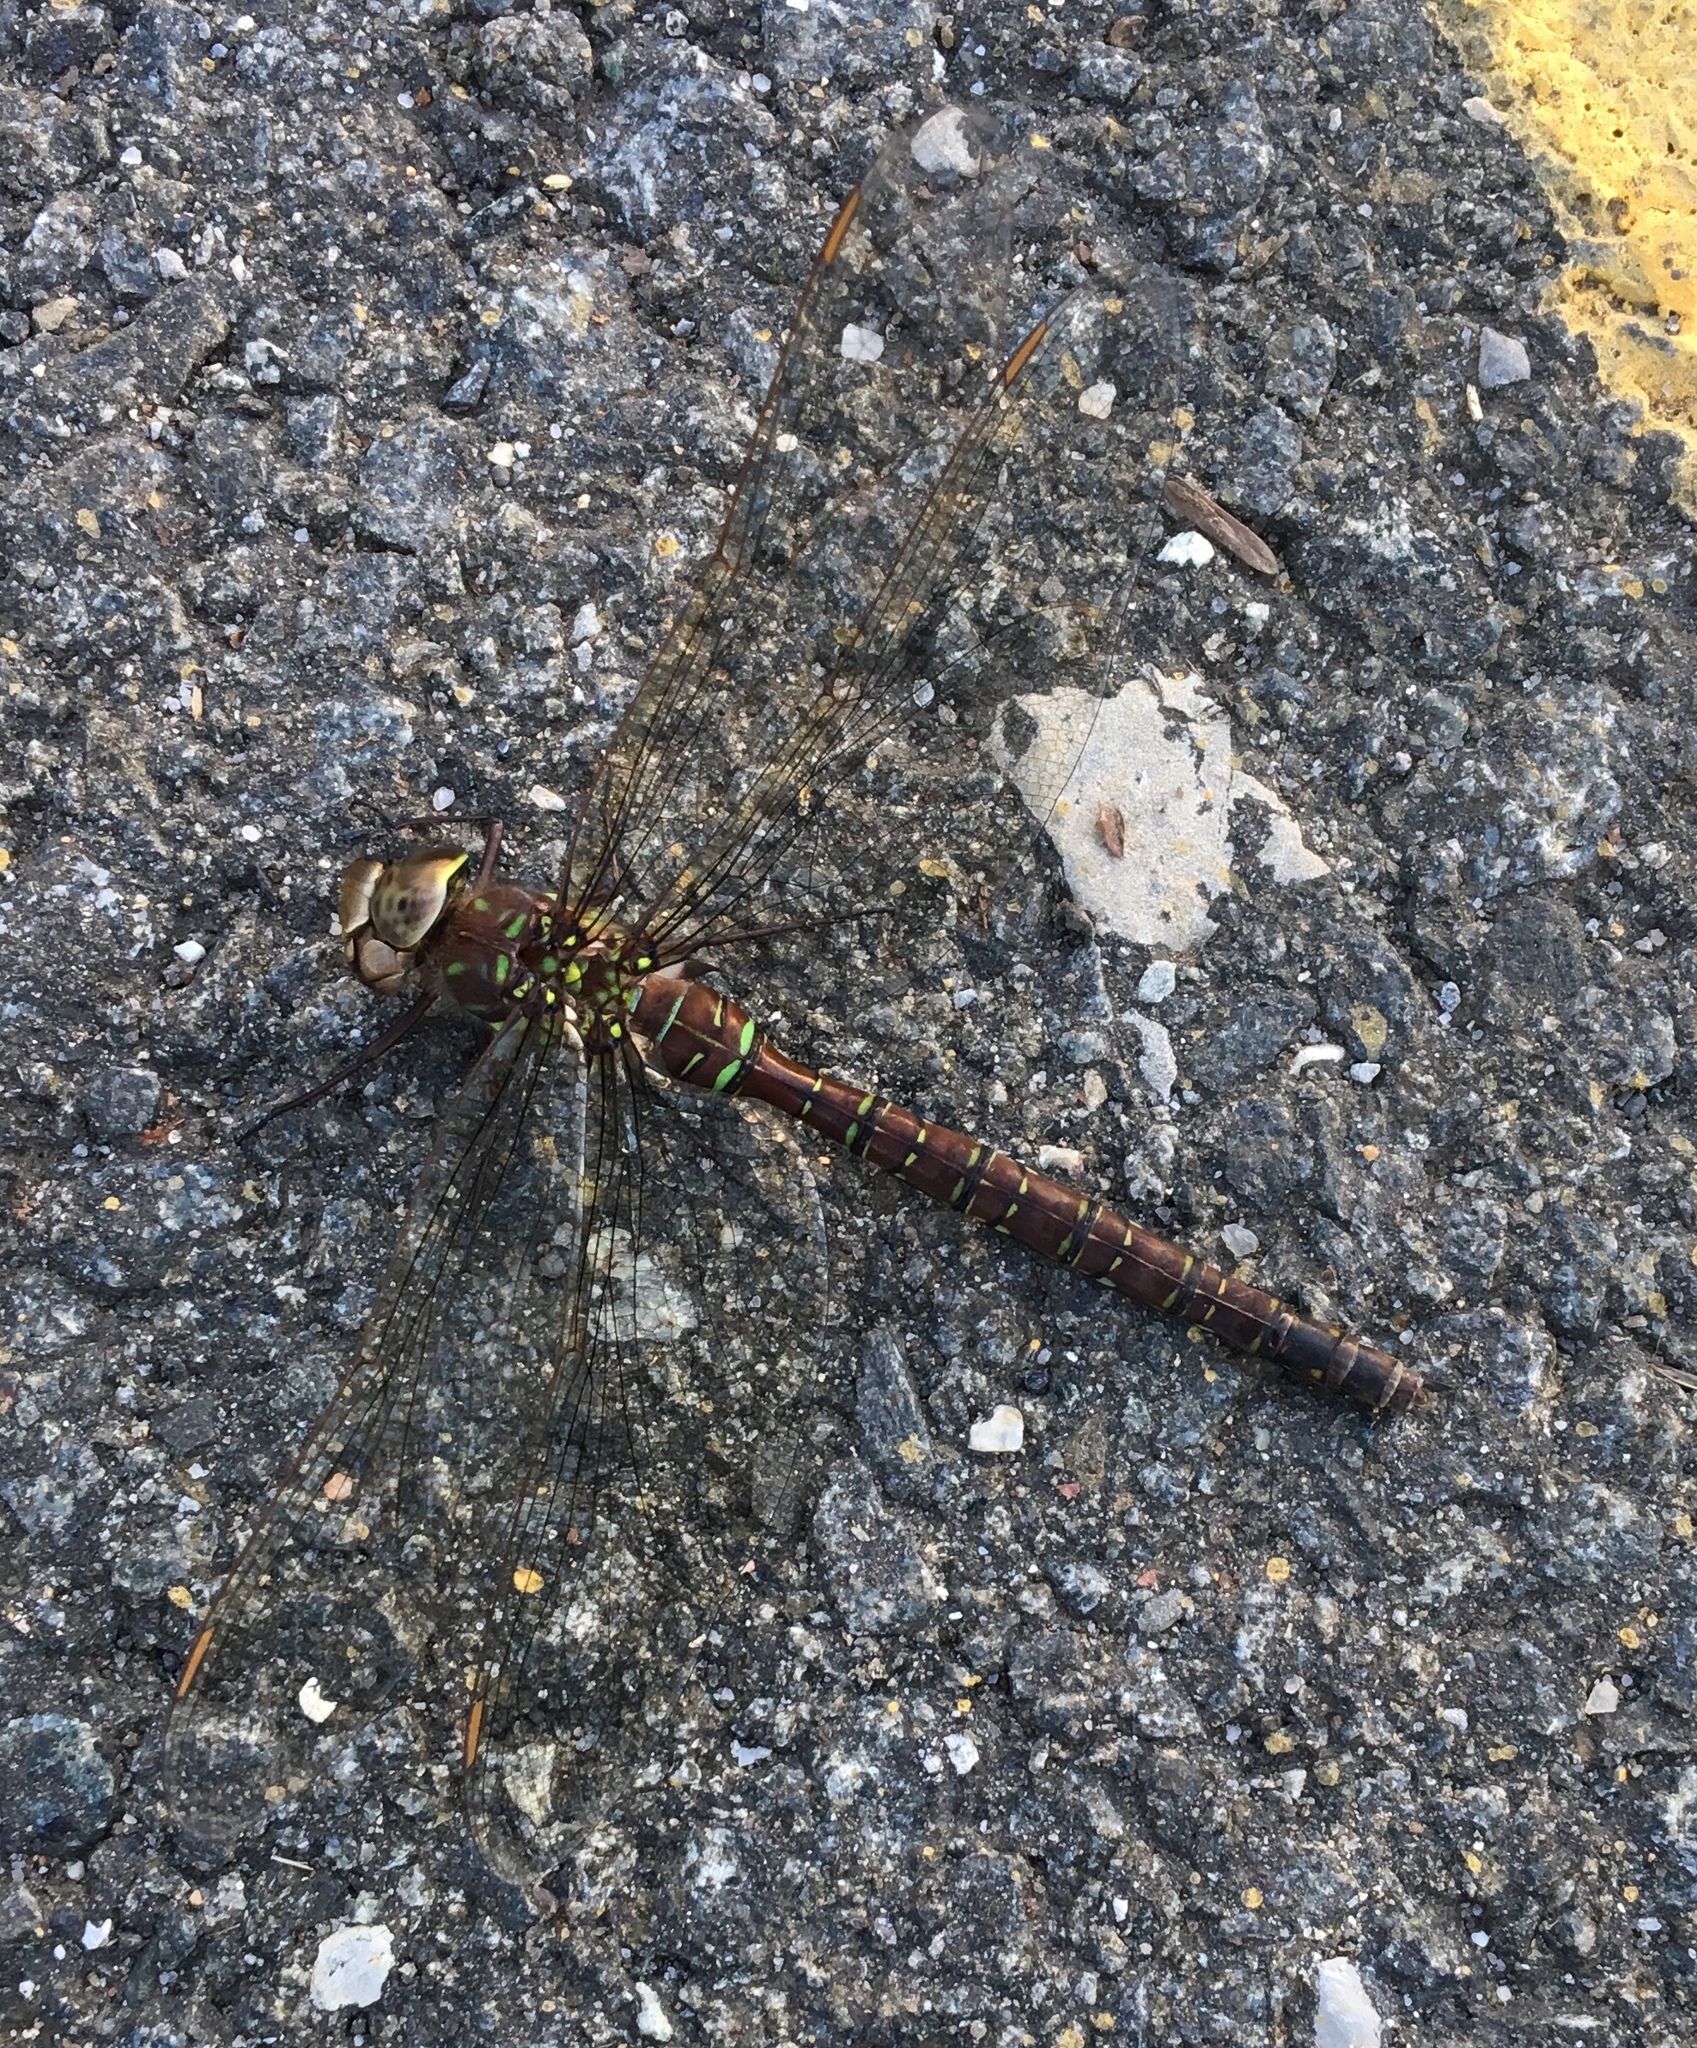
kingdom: Animalia
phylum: Arthropoda
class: Insecta
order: Odonata
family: Aeshnidae
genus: Aeshna
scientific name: Aeshna umbrosa
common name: Shadow darner
